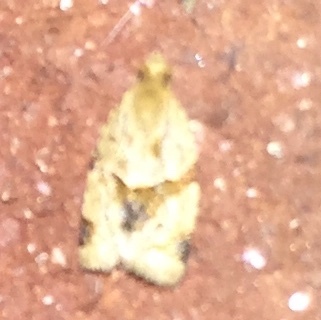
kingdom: Animalia
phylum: Arthropoda
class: Insecta
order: Lepidoptera
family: Tortricidae
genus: Clepsis
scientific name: Clepsis peritana
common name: Garden tortrix
